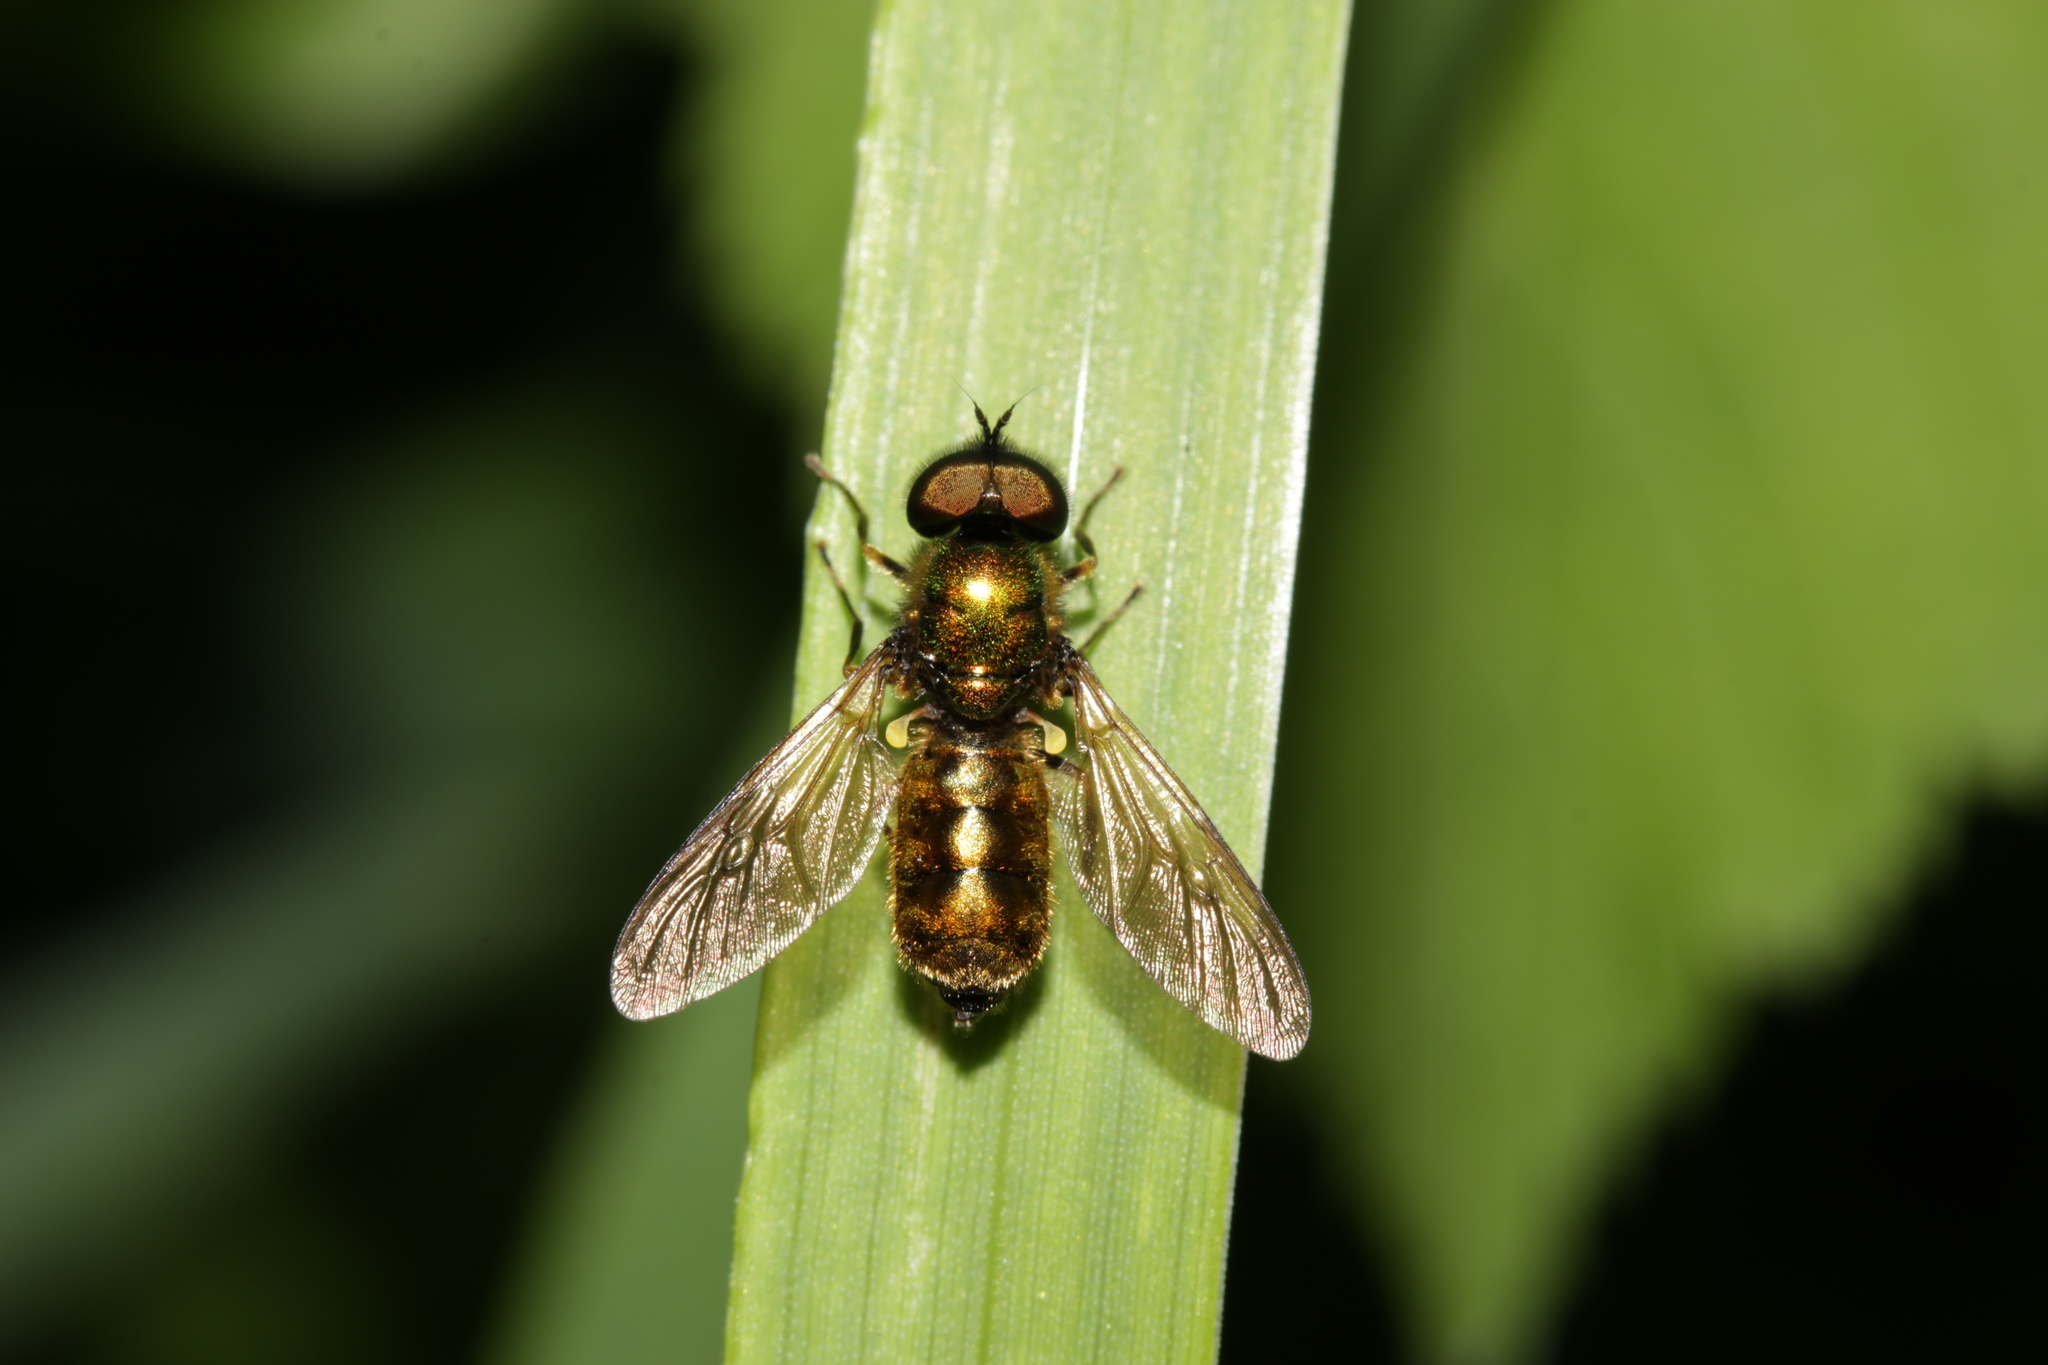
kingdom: Animalia
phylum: Arthropoda
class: Insecta
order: Diptera
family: Stratiomyidae
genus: Chloromyia
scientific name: Chloromyia formosa
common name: Soldier fly
